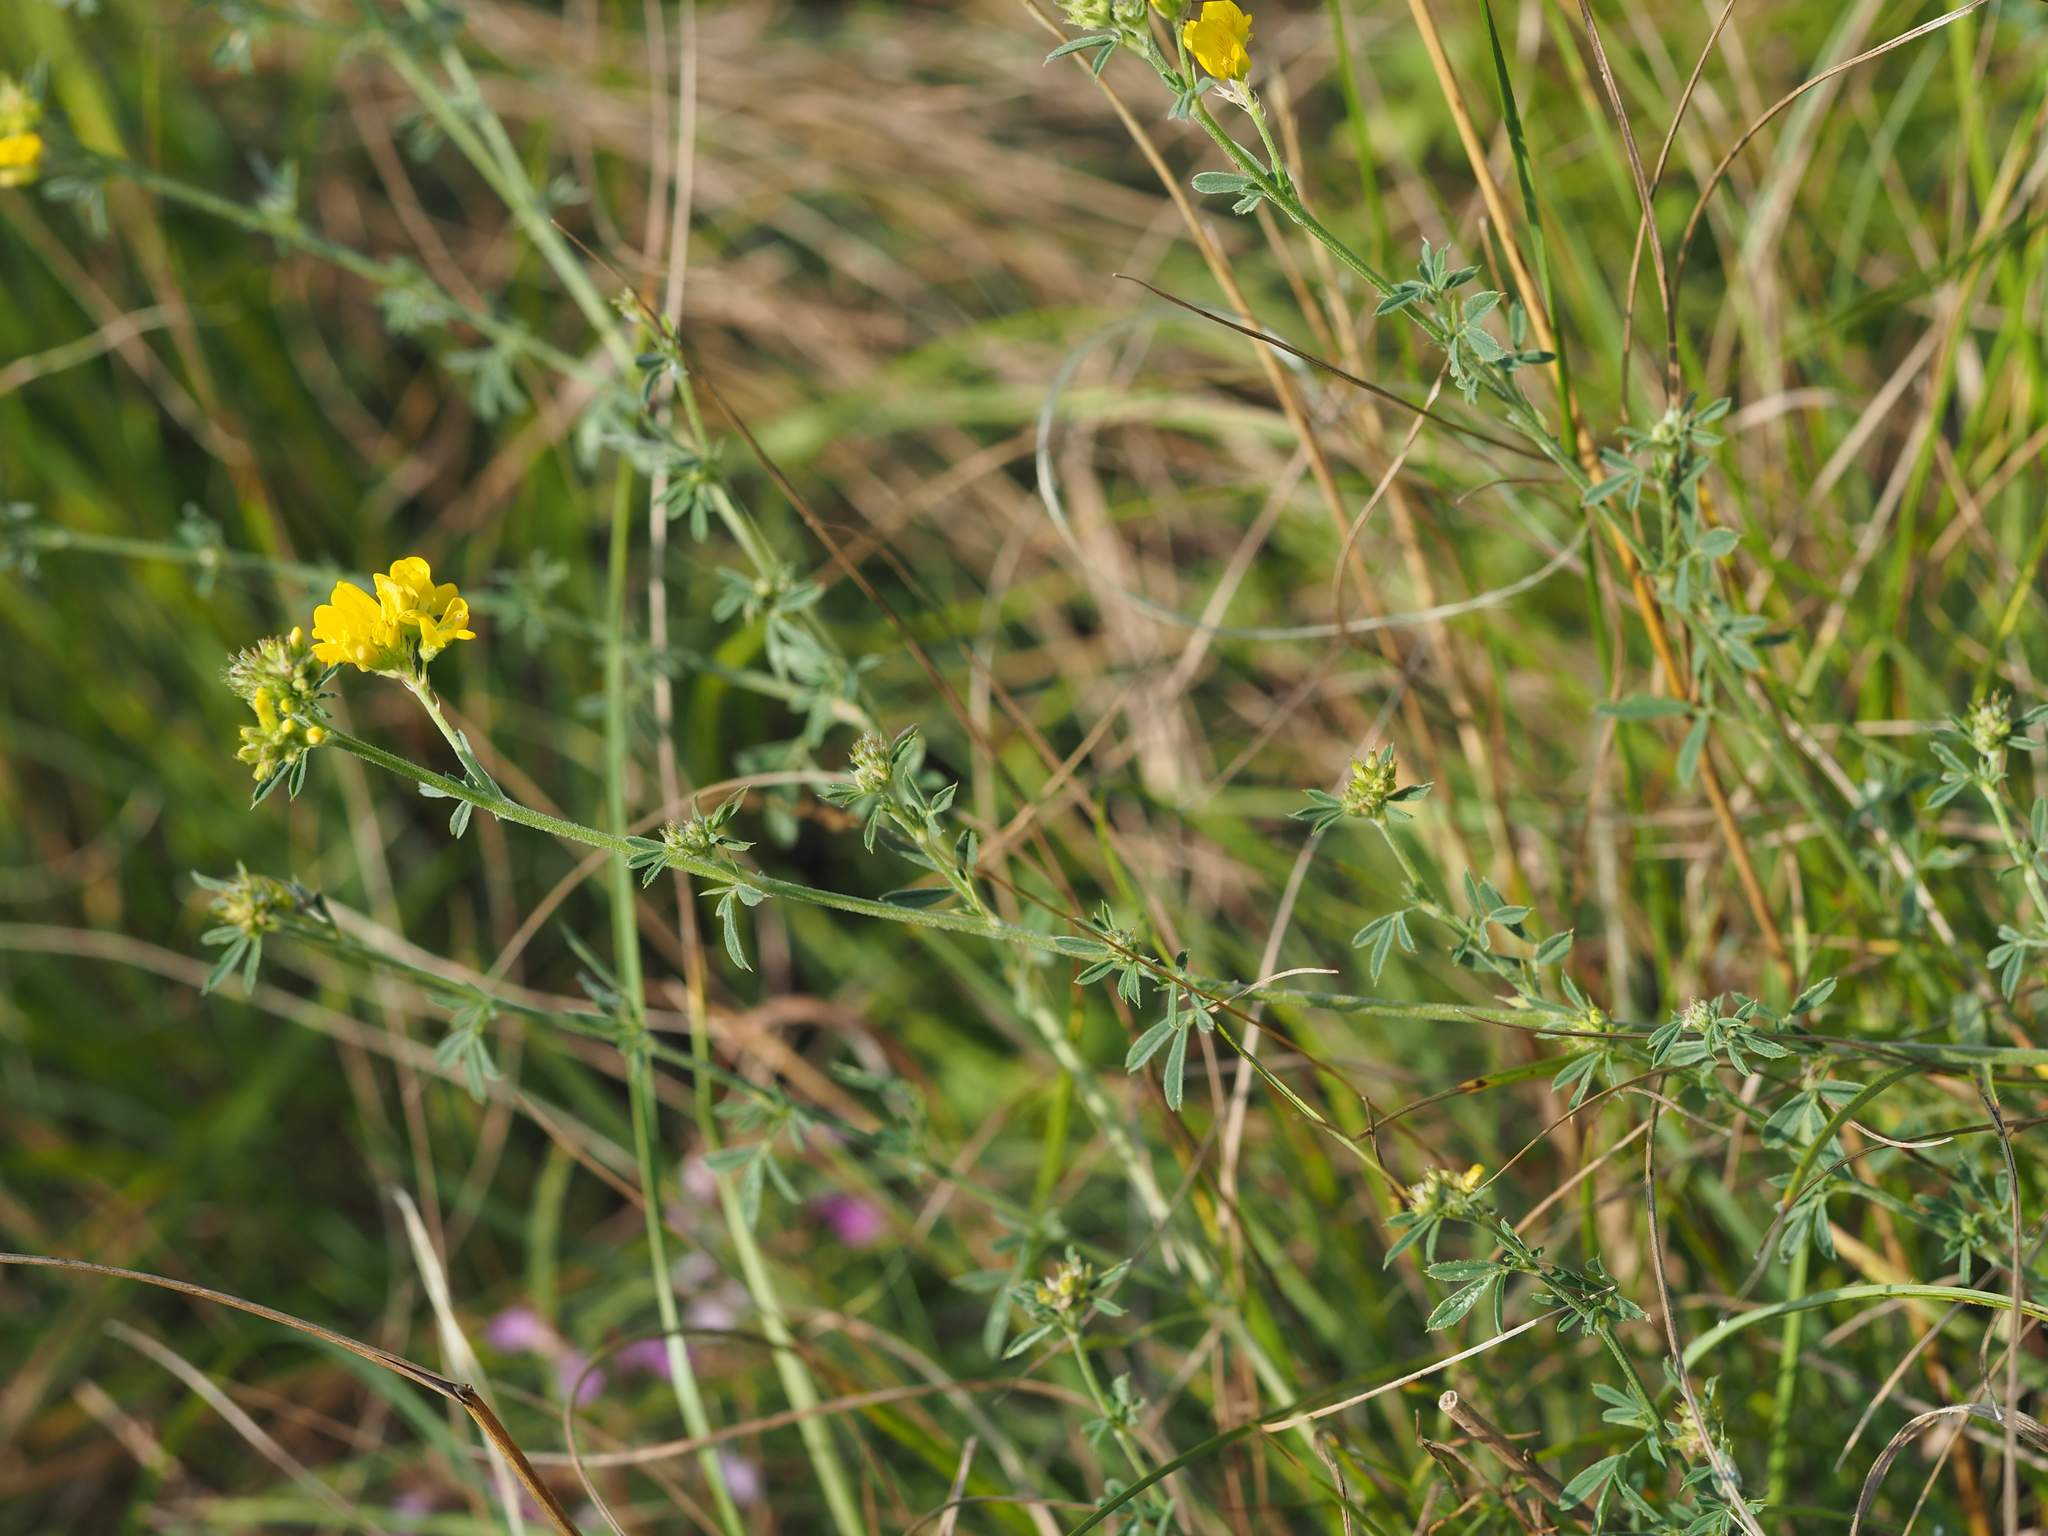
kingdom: Plantae
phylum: Tracheophyta
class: Magnoliopsida
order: Fabales
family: Fabaceae
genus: Medicago
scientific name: Medicago falcata
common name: Sickle medick
